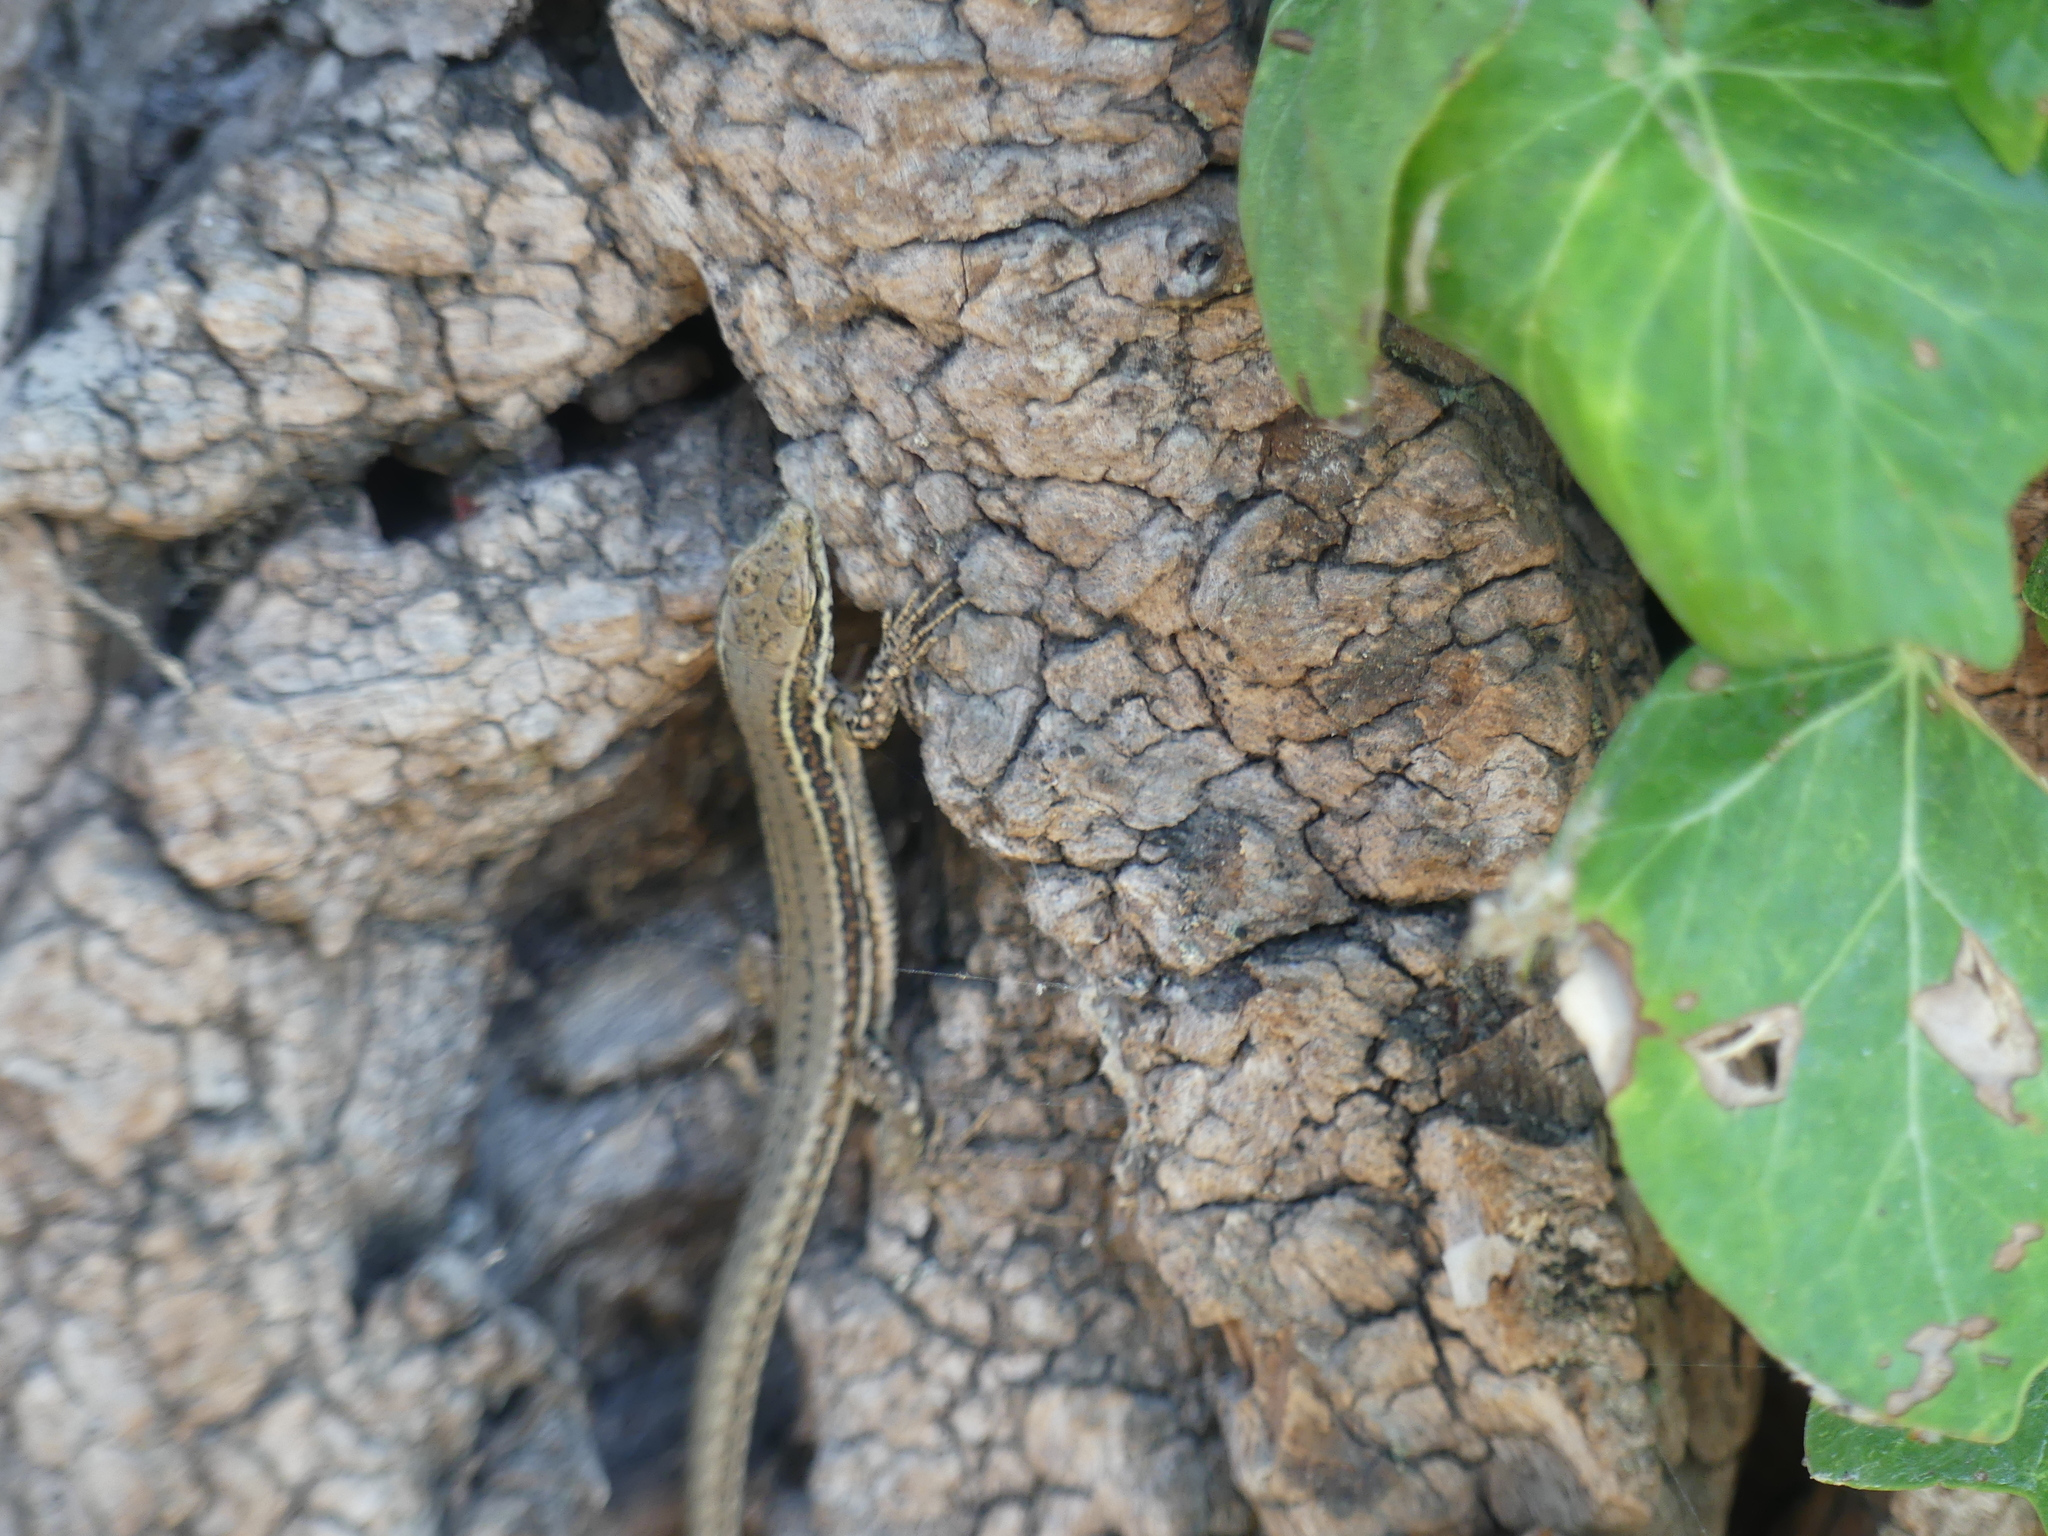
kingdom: Animalia
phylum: Chordata
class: Squamata
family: Lacertidae
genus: Podarcis
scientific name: Podarcis muralis
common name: Common wall lizard
